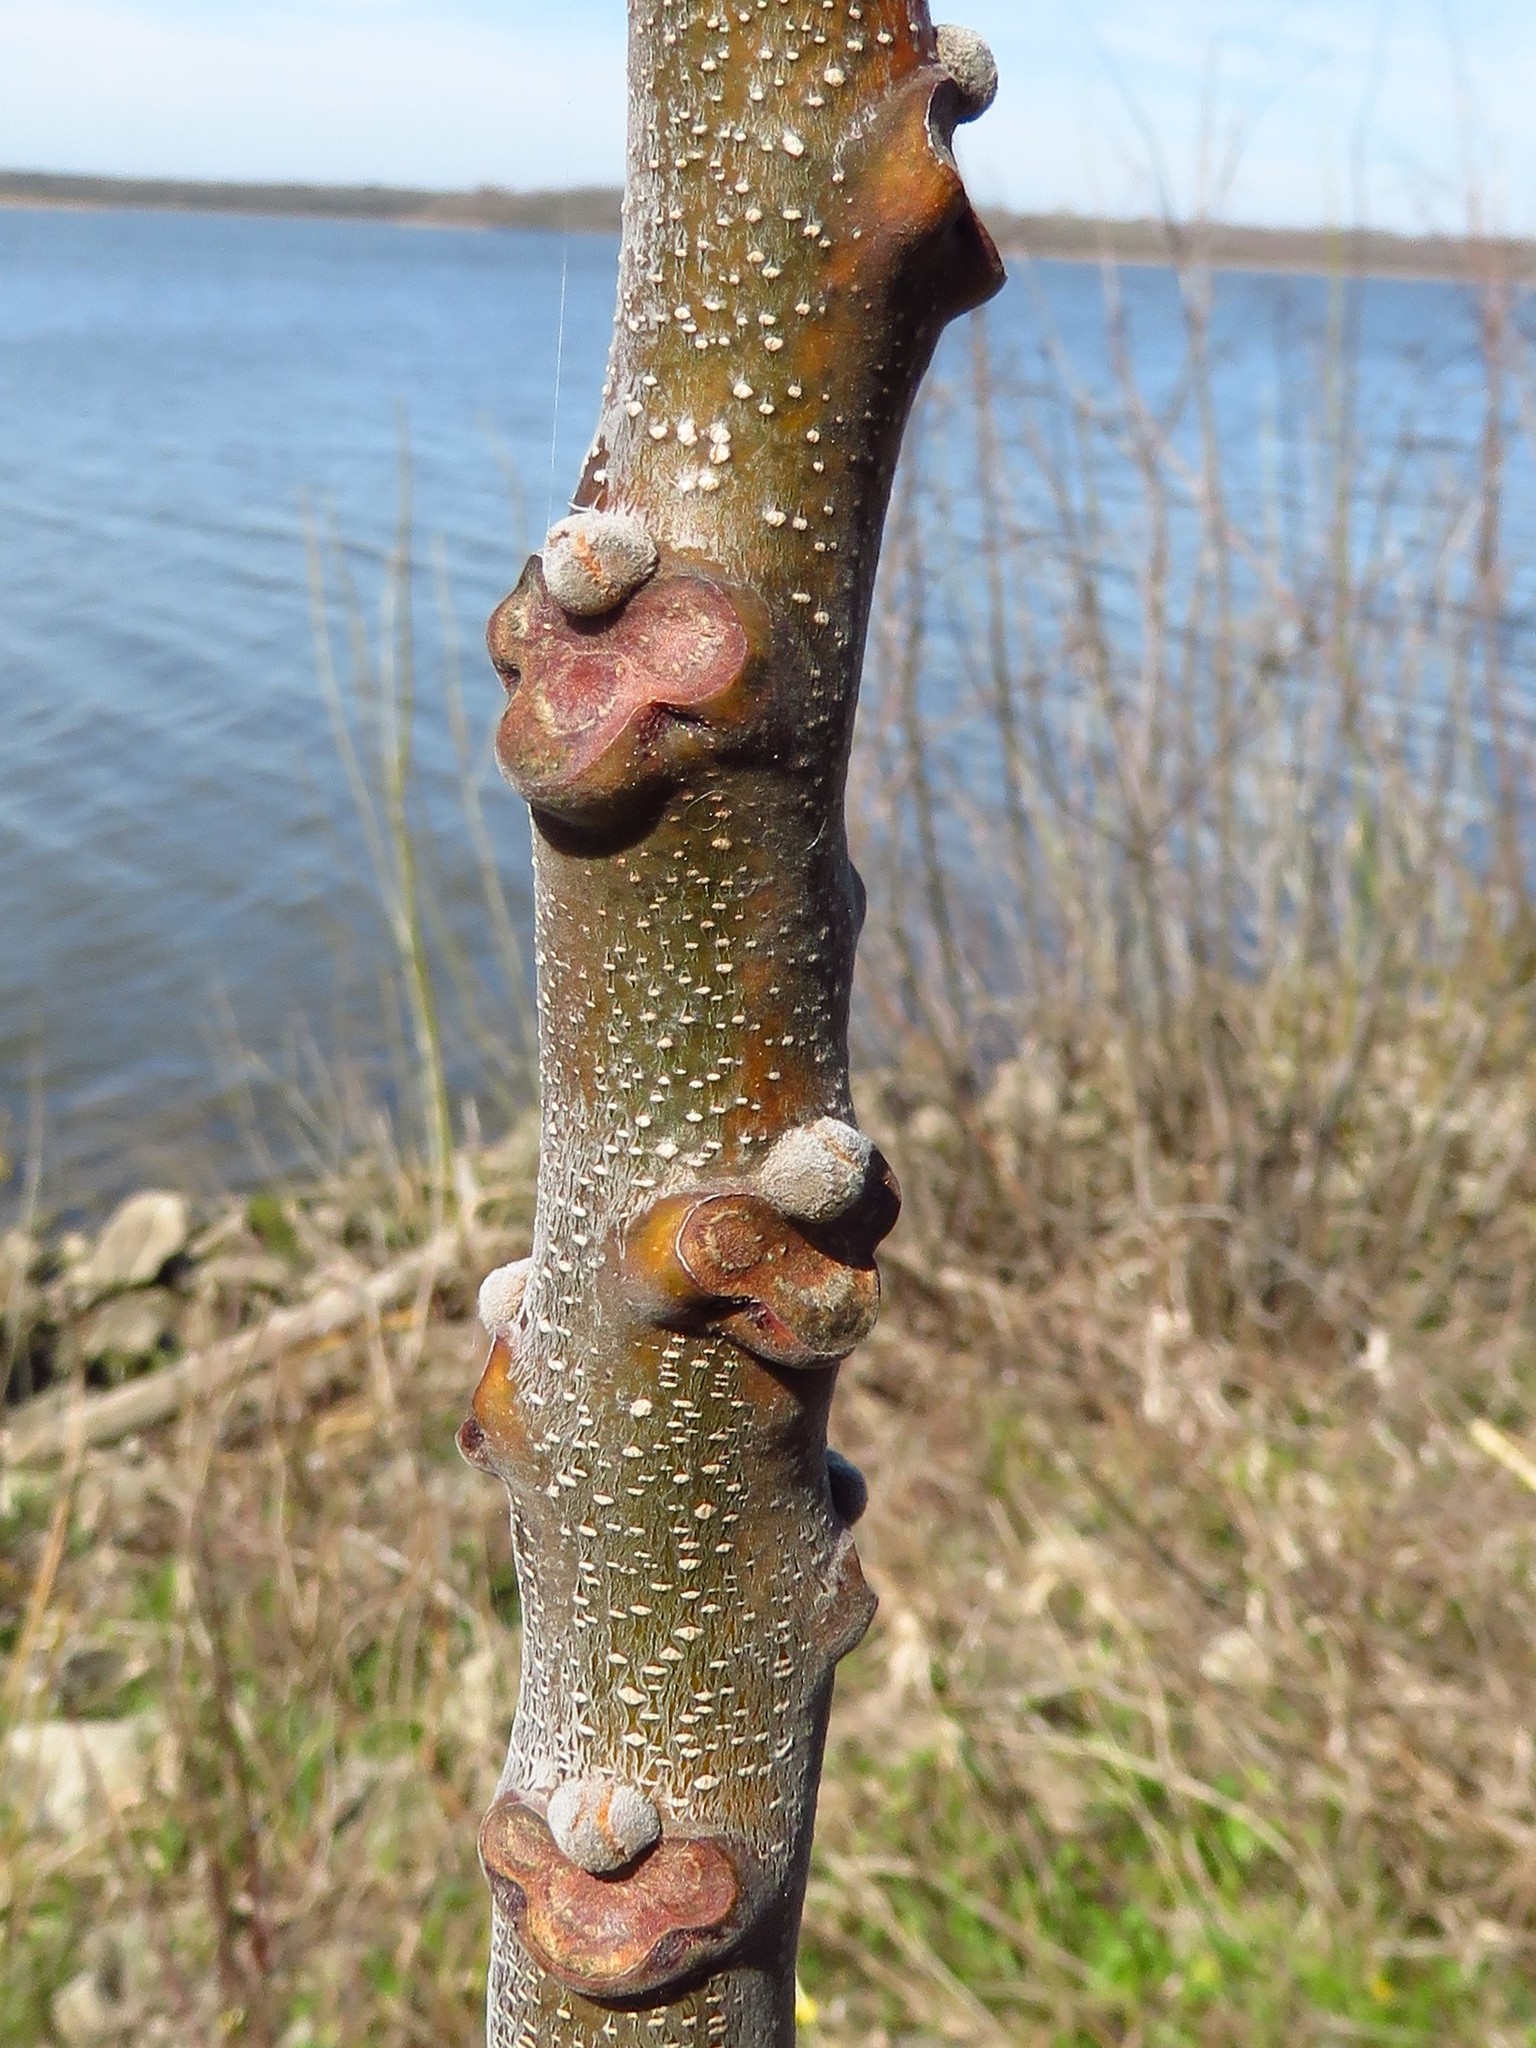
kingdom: Plantae
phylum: Tracheophyta
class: Magnoliopsida
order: Sapindales
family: Meliaceae
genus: Melia
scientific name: Melia azedarach
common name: Chinaberrytree
